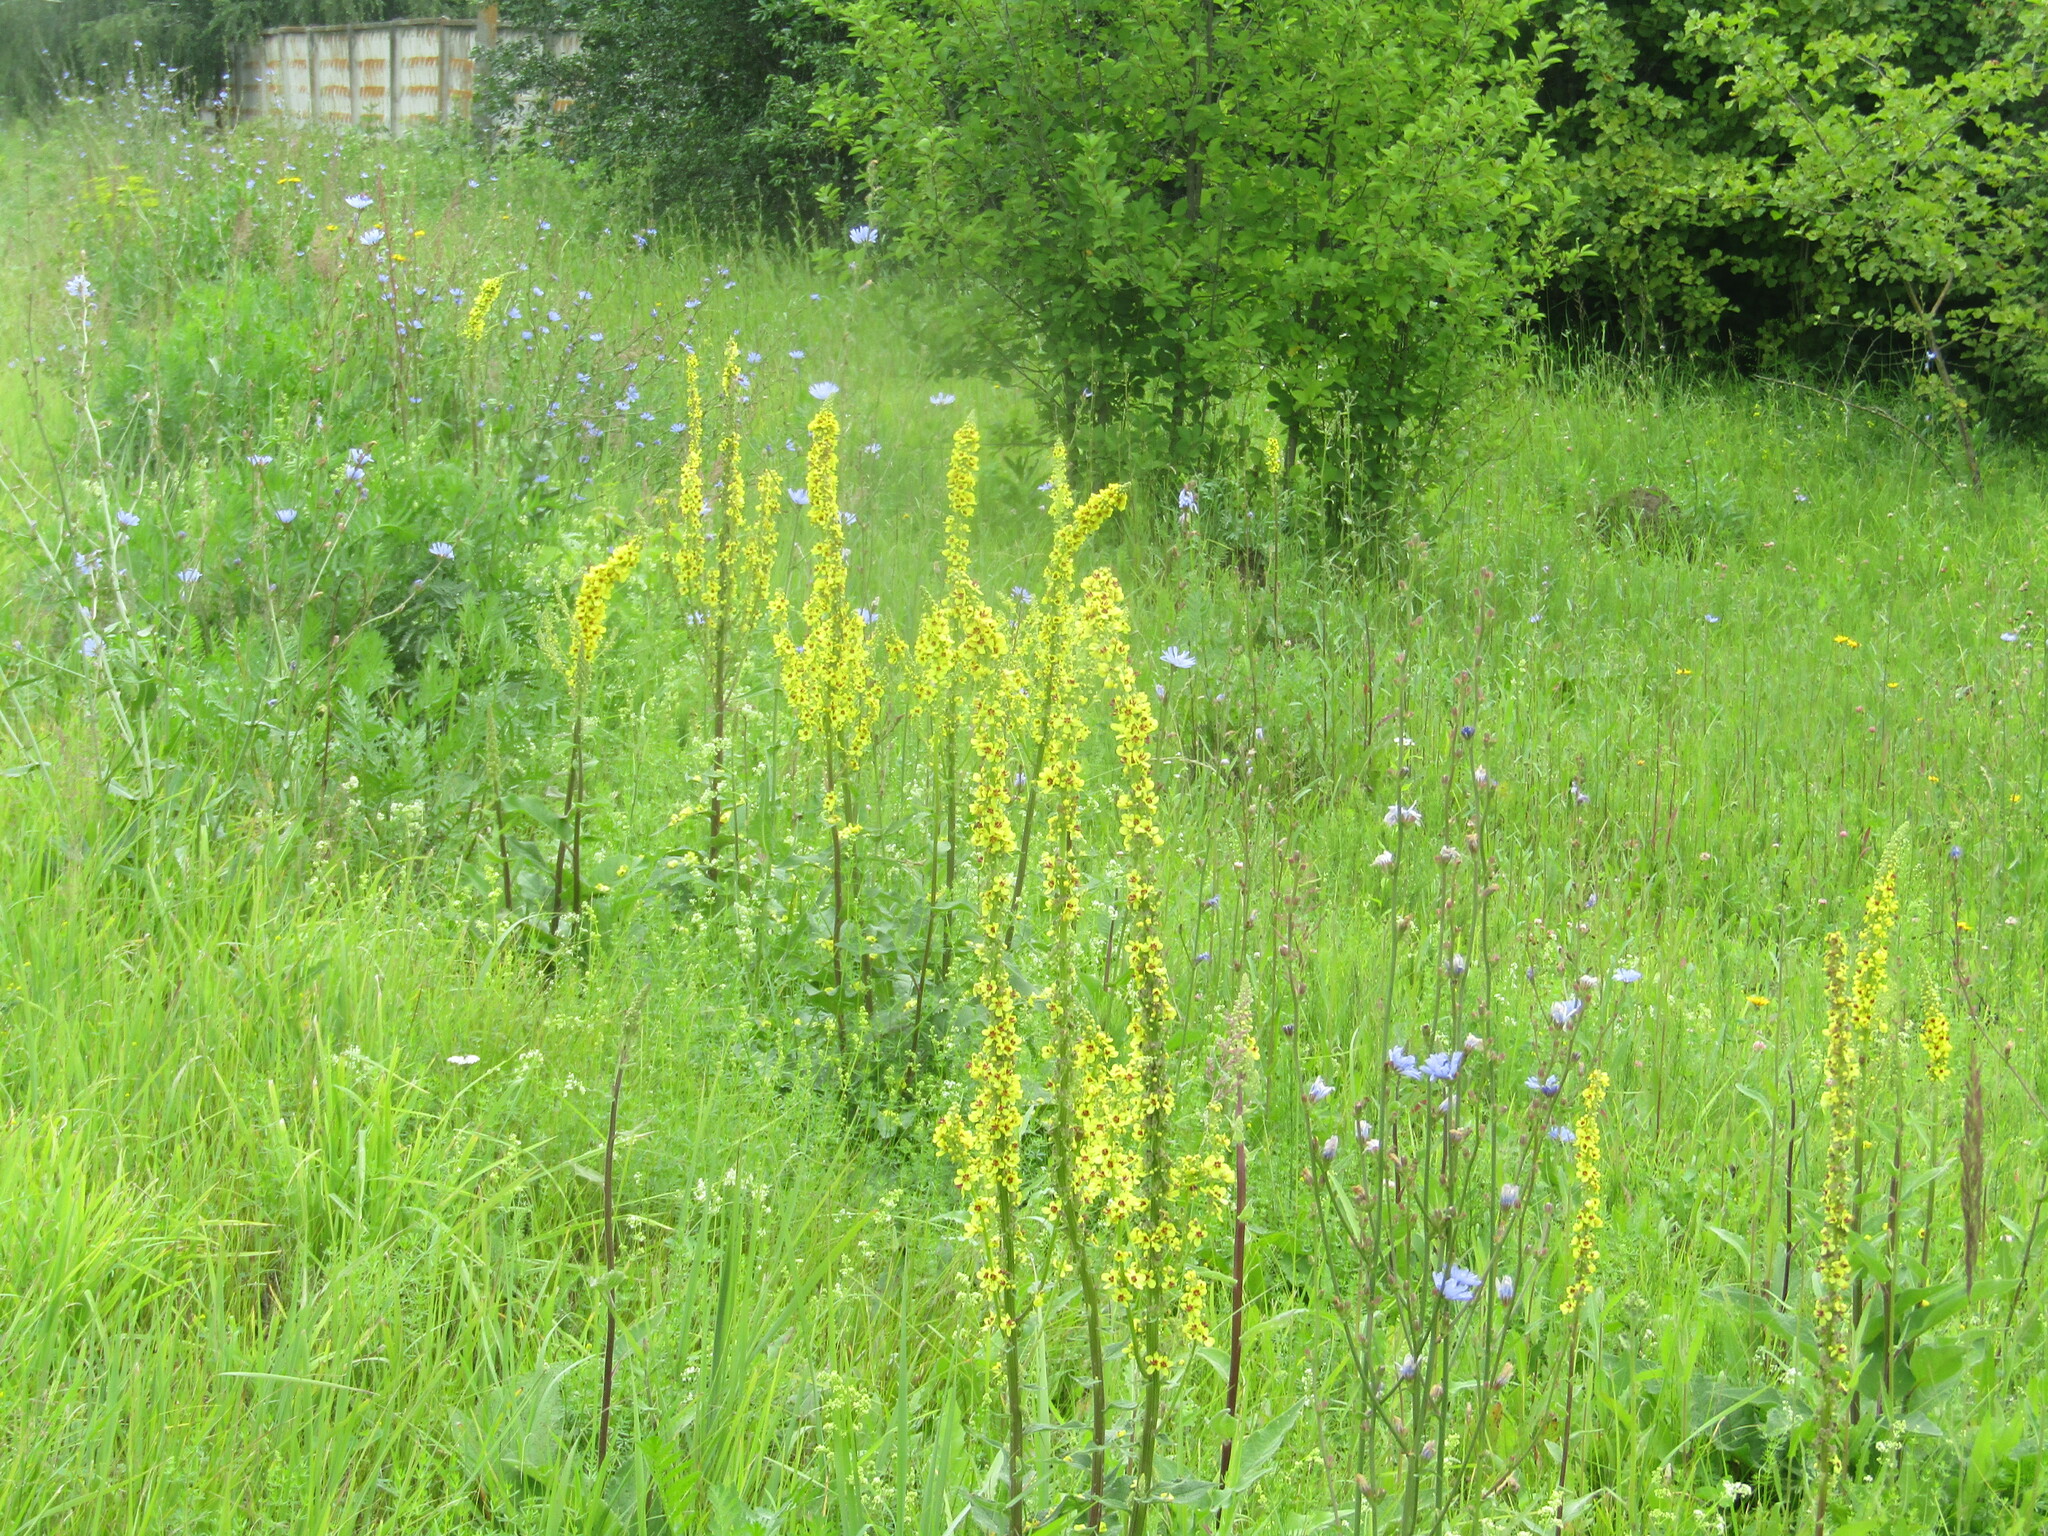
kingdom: Plantae
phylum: Tracheophyta
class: Magnoliopsida
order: Lamiales
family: Scrophulariaceae
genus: Verbascum
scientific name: Verbascum nigrum
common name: Dark mullein
